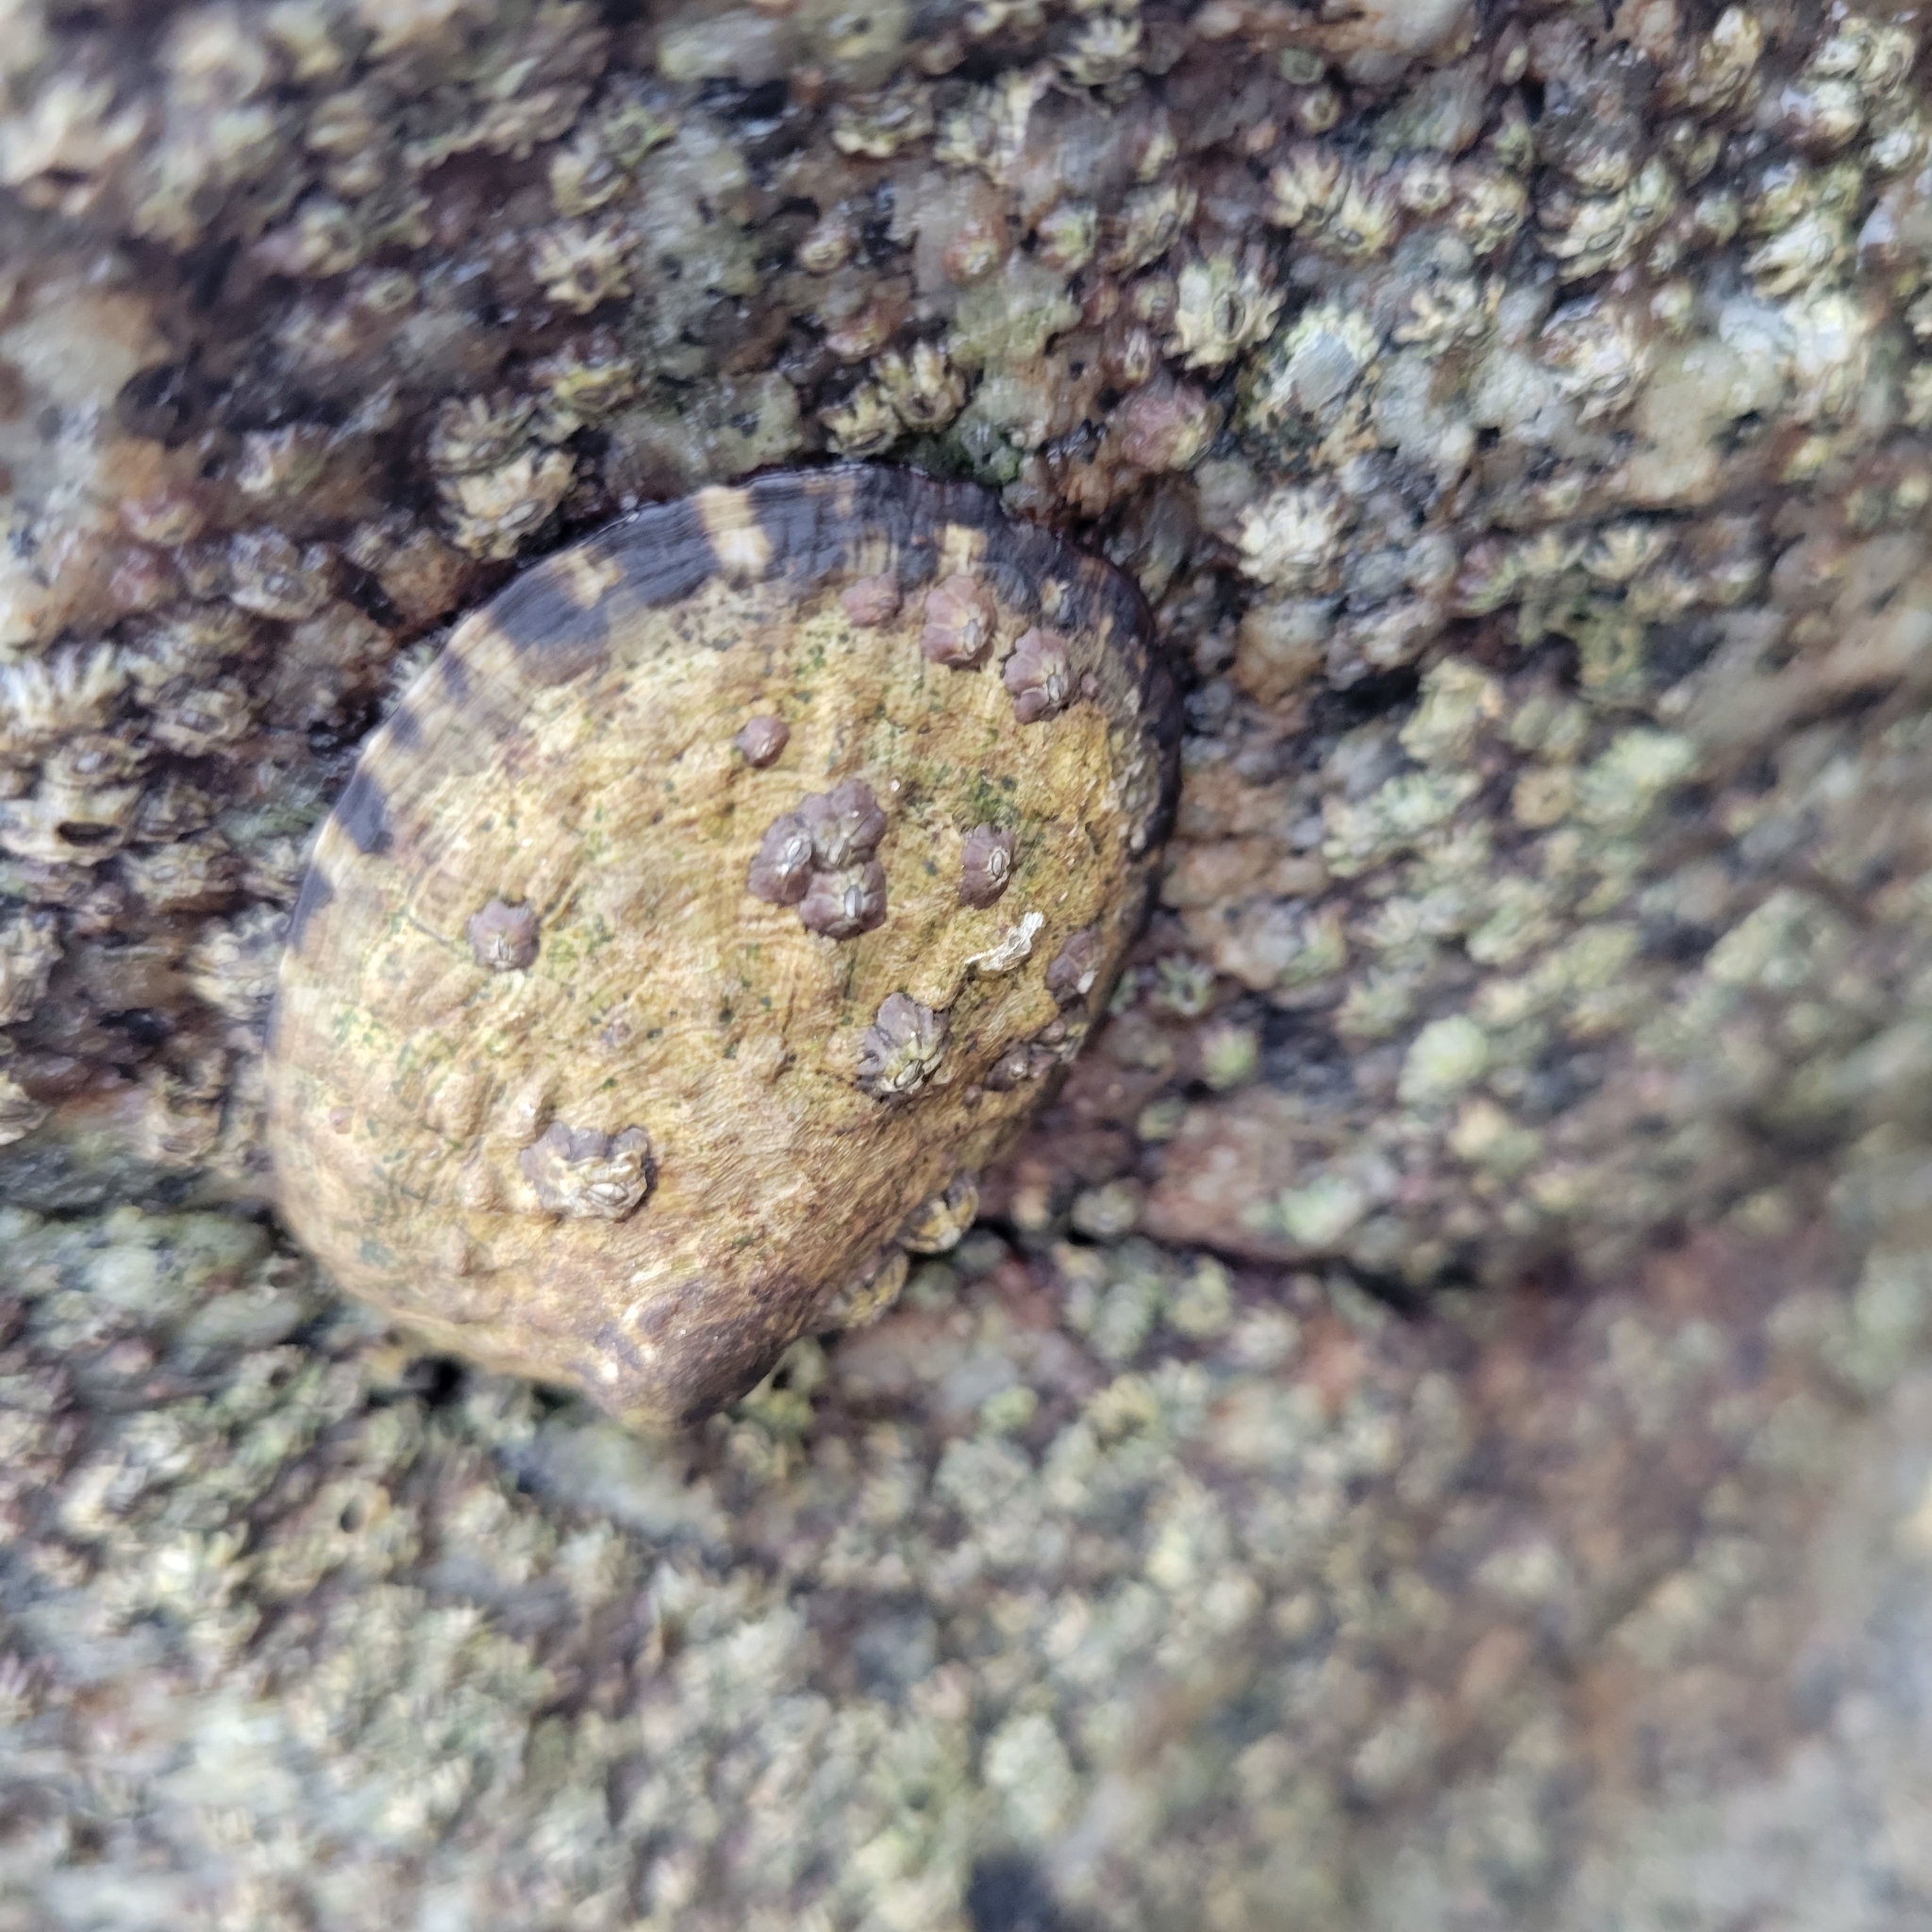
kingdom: Animalia
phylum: Mollusca
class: Gastropoda
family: Lottiidae
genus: Lottia
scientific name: Lottia gigantea
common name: Owl limpet
